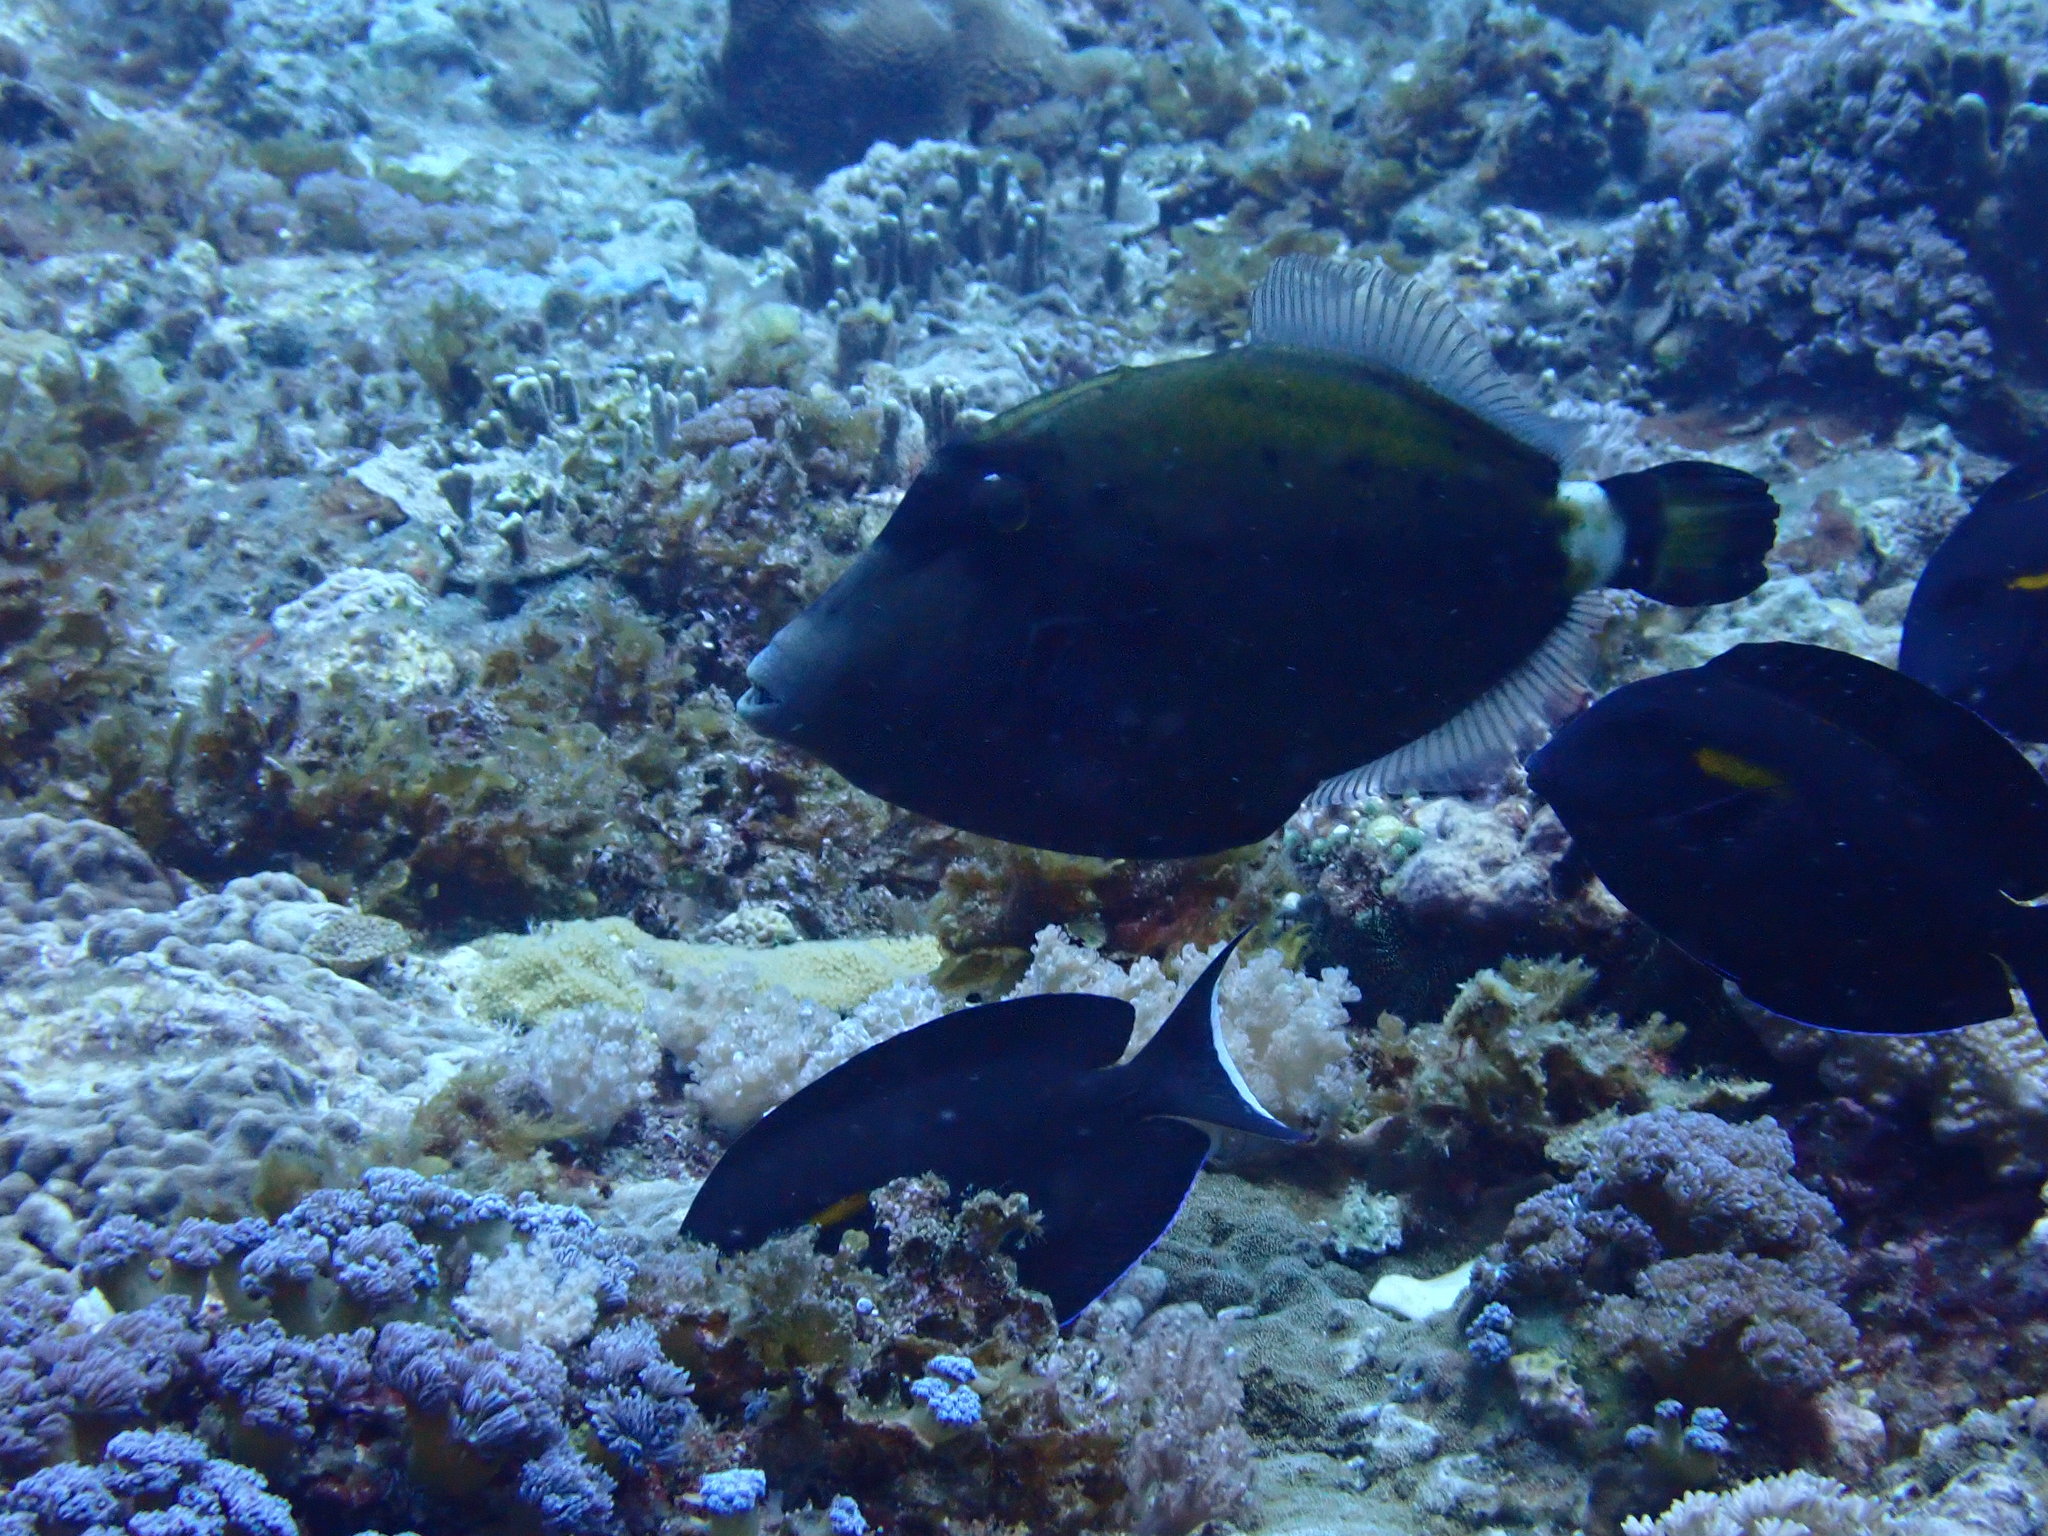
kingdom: Animalia
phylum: Chordata
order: Tetraodontiformes
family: Monacanthidae
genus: Cantherhines
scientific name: Cantherhines fronticinctus
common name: Spectacled filefish
